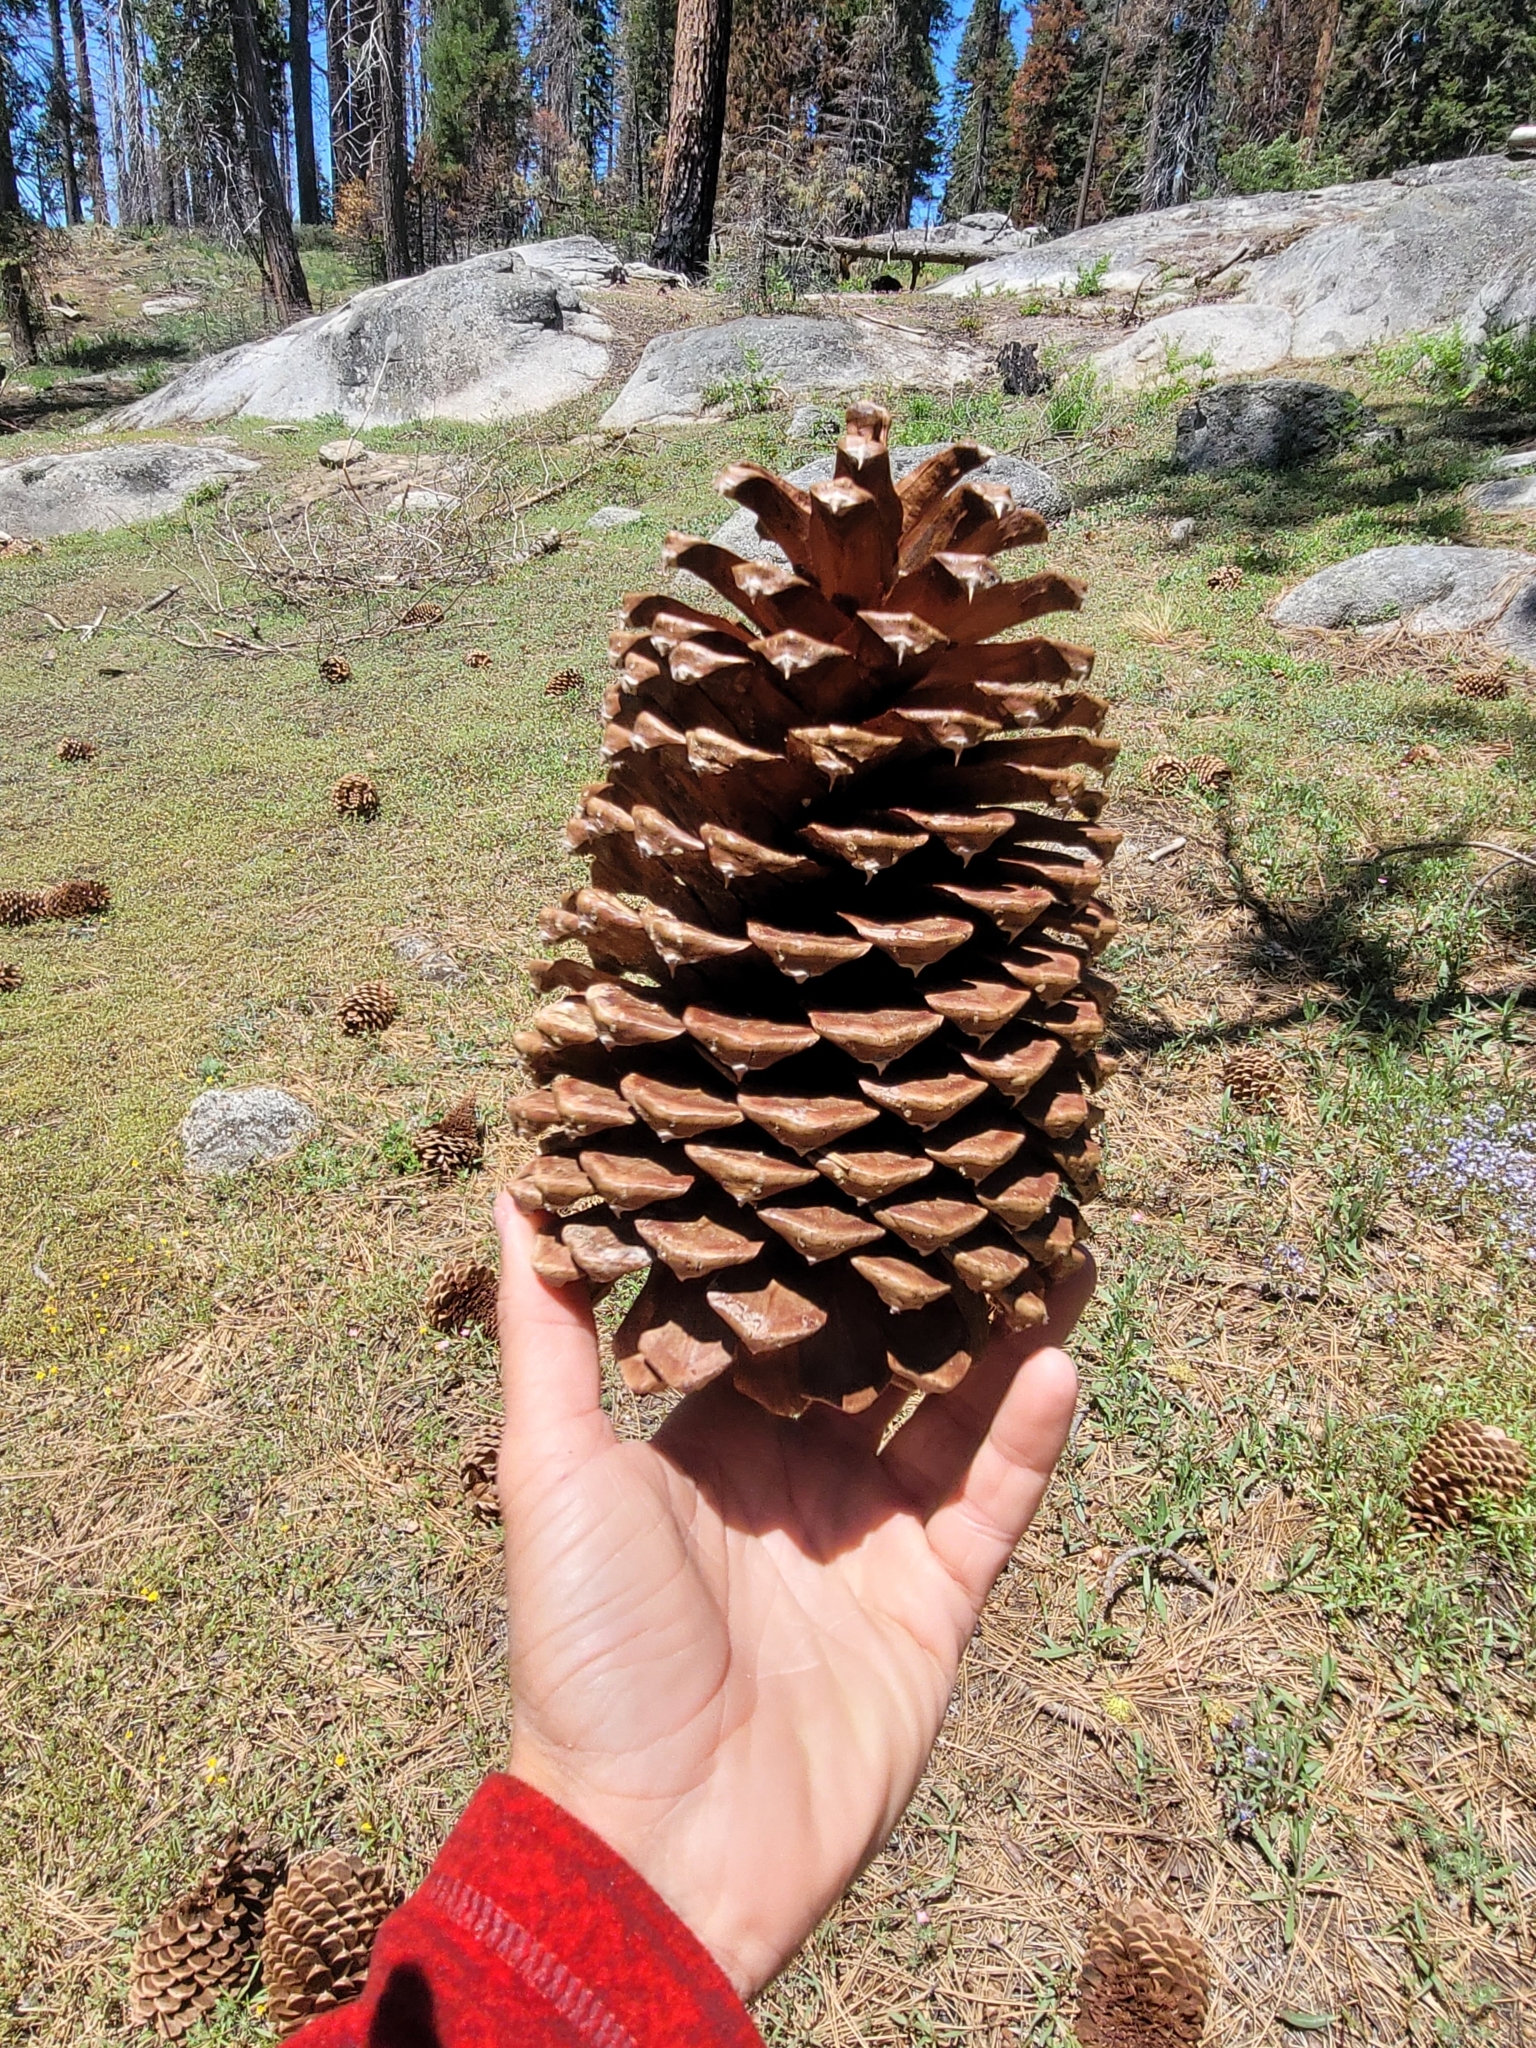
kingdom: Plantae
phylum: Tracheophyta
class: Pinopsida
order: Pinales
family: Pinaceae
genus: Pinus
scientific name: Pinus jeffreyi
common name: Jeffrey pine
